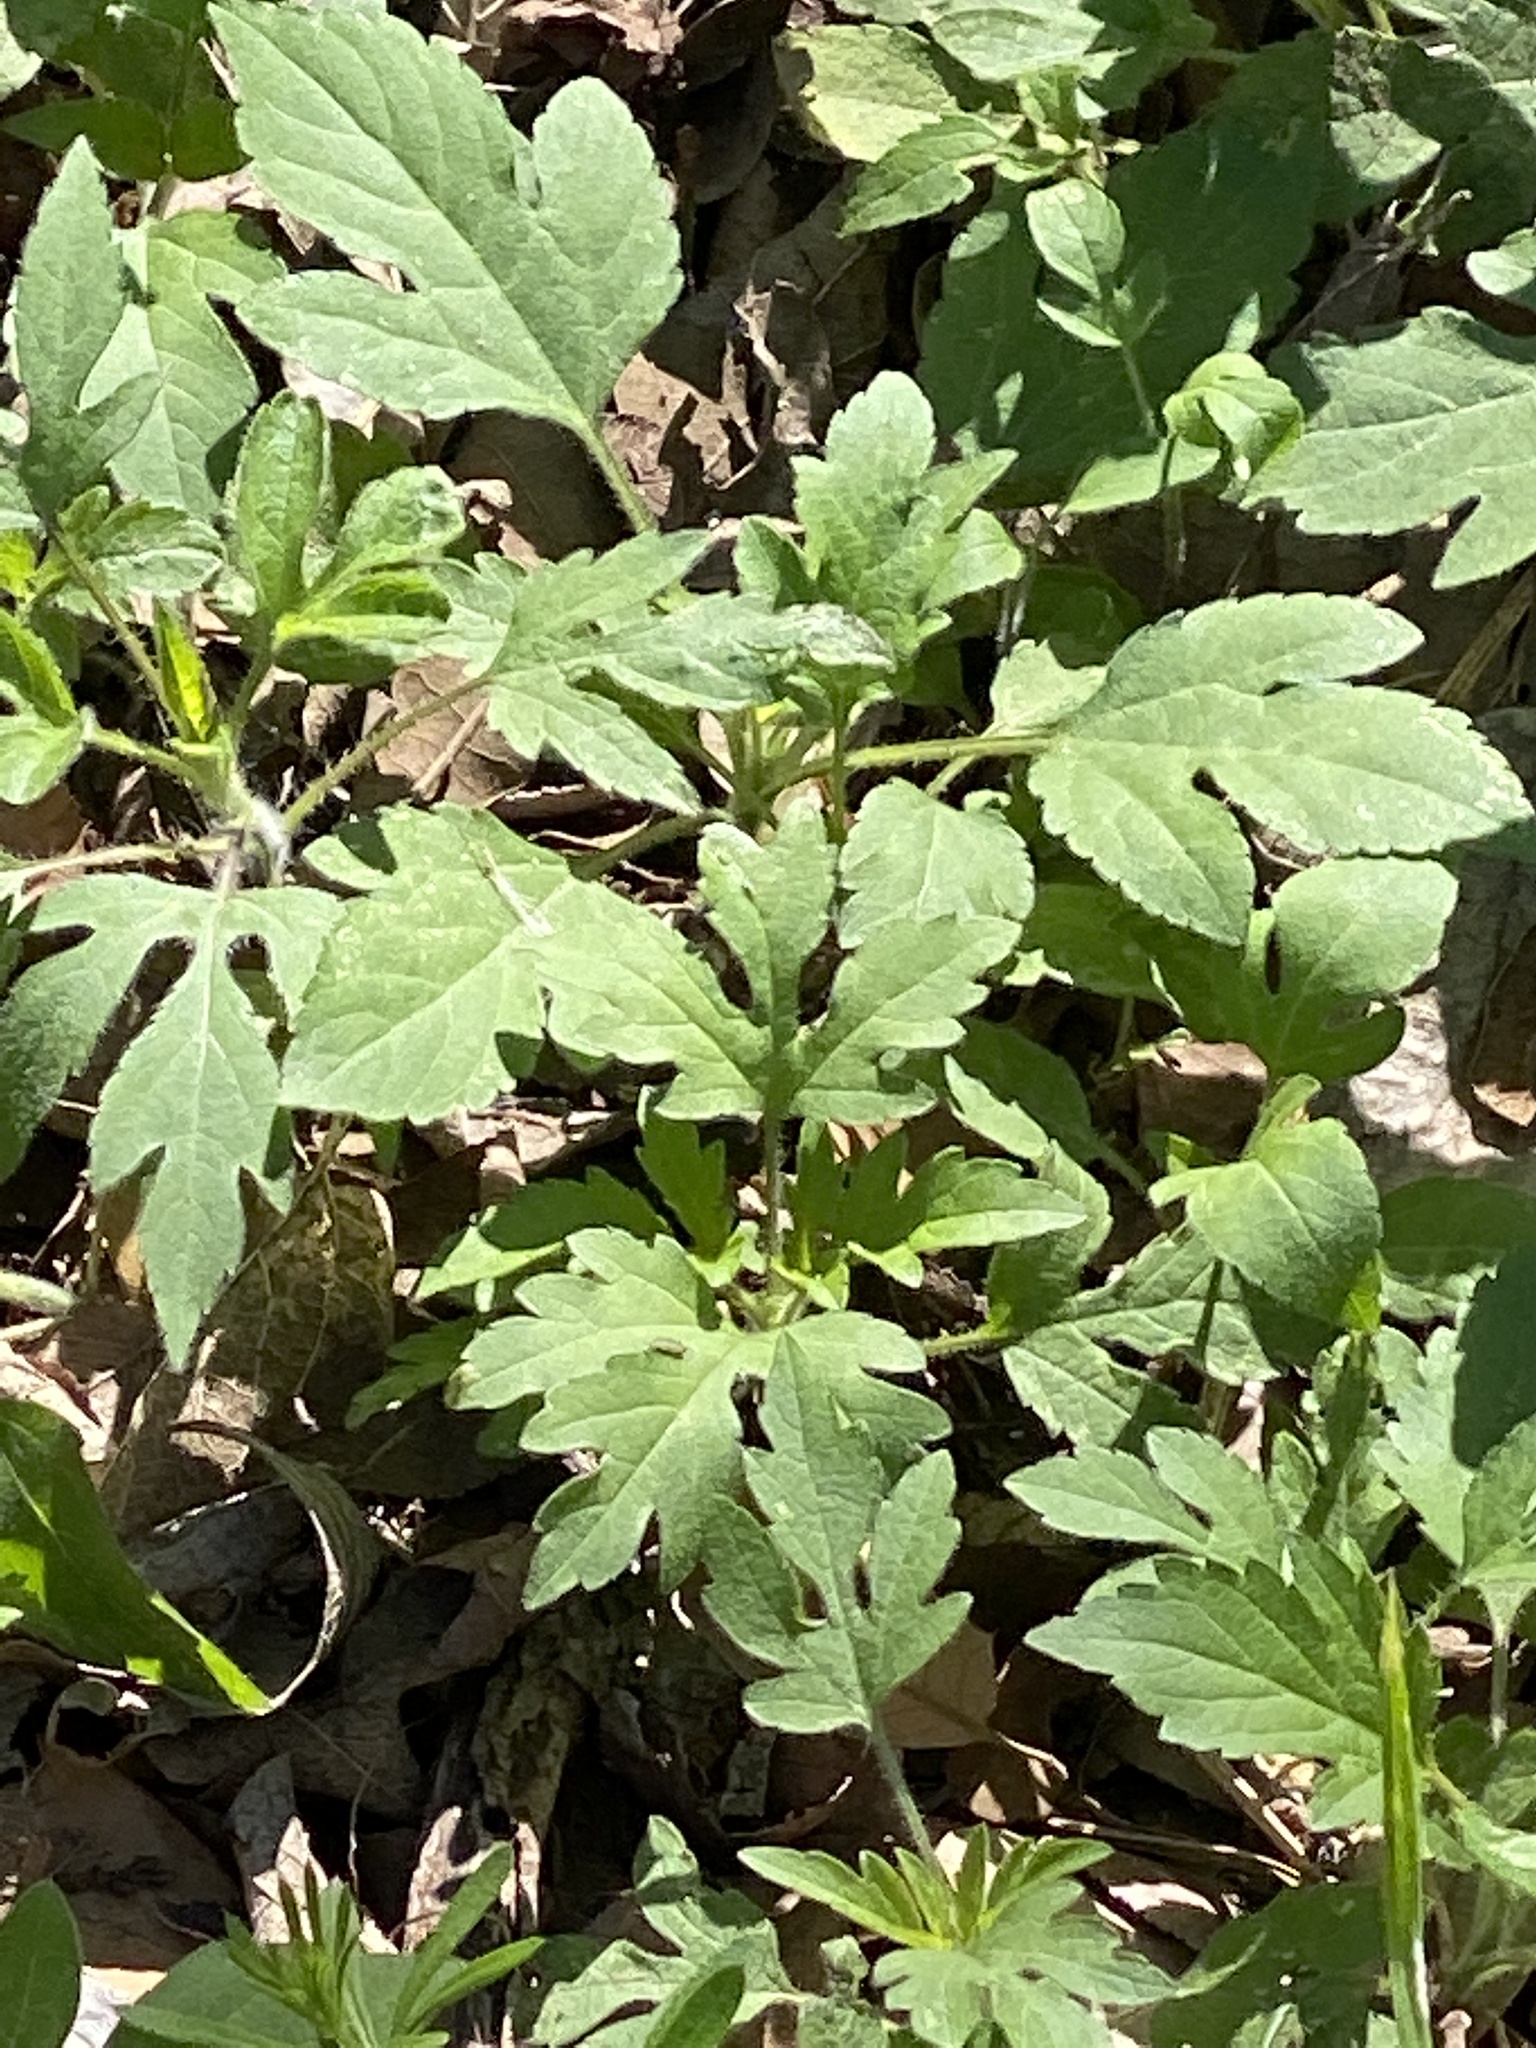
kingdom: Plantae
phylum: Tracheophyta
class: Magnoliopsida
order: Asterales
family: Asteraceae
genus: Ambrosia
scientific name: Ambrosia trifida
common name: Giant ragweed
